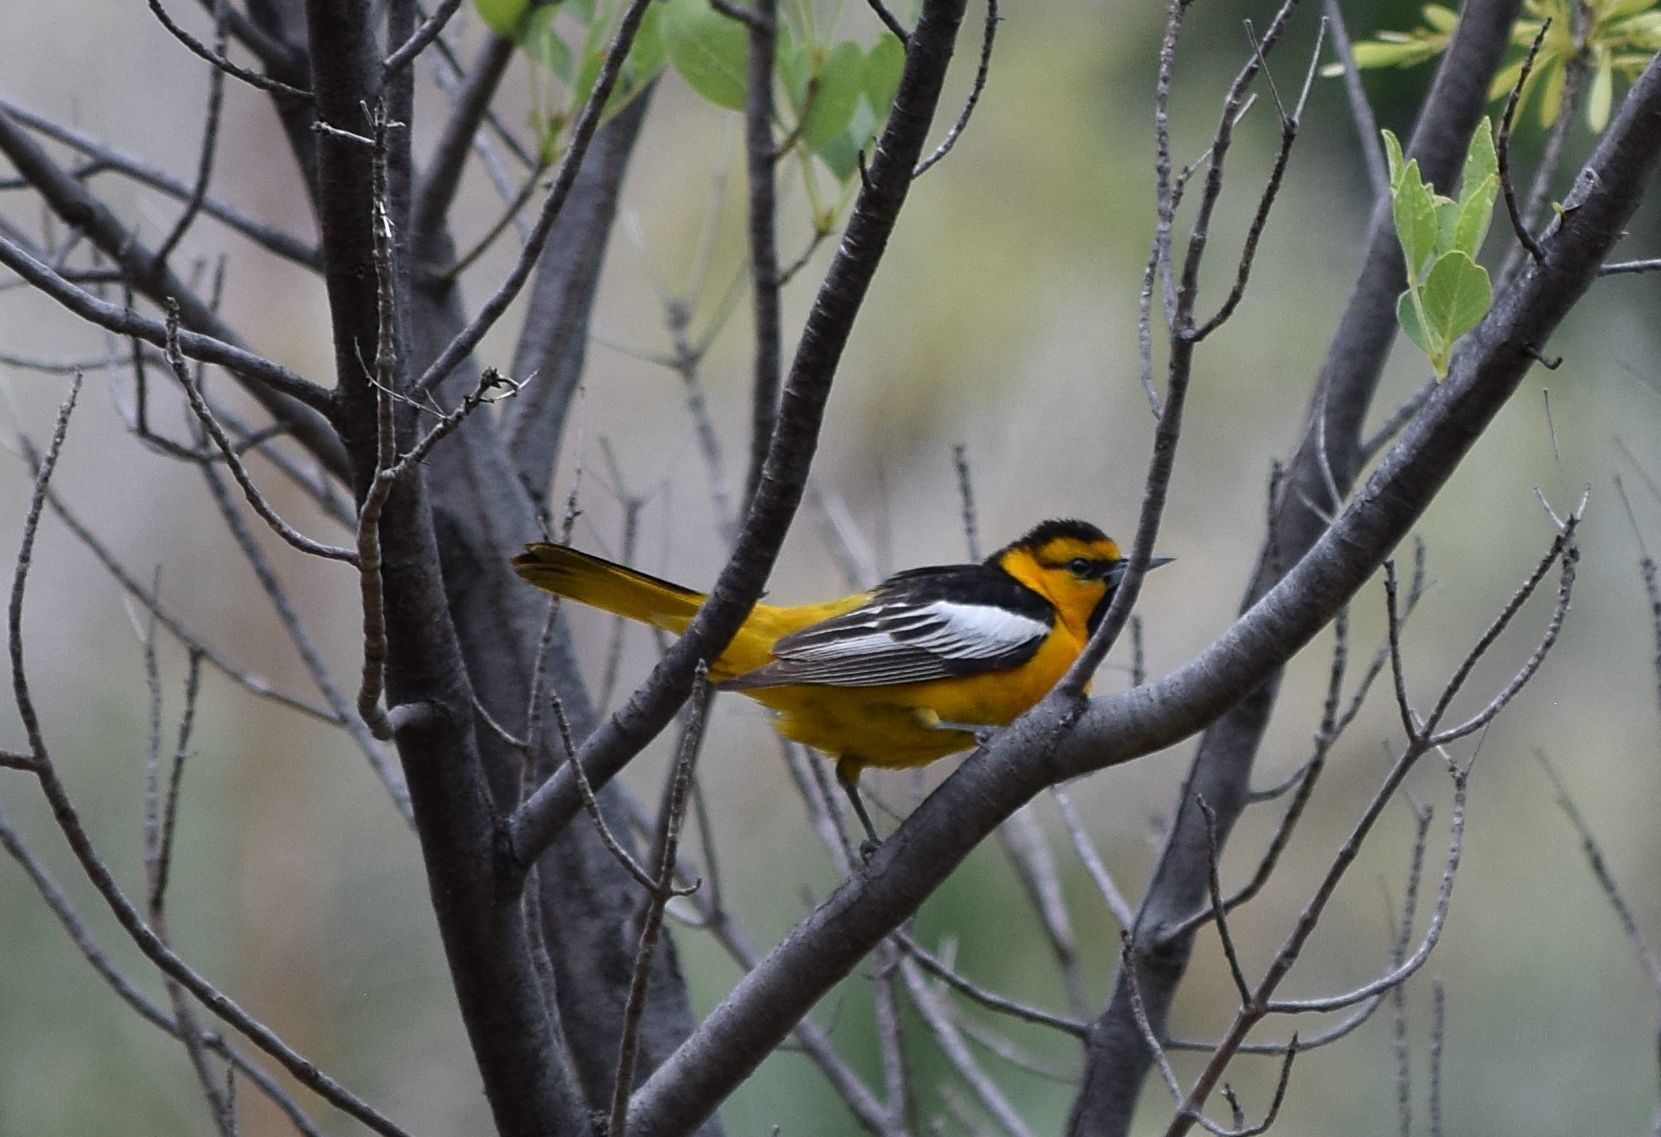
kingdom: Animalia
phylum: Chordata
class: Aves
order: Passeriformes
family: Icteridae
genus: Icterus
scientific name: Icterus bullockii
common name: Bullock's oriole
